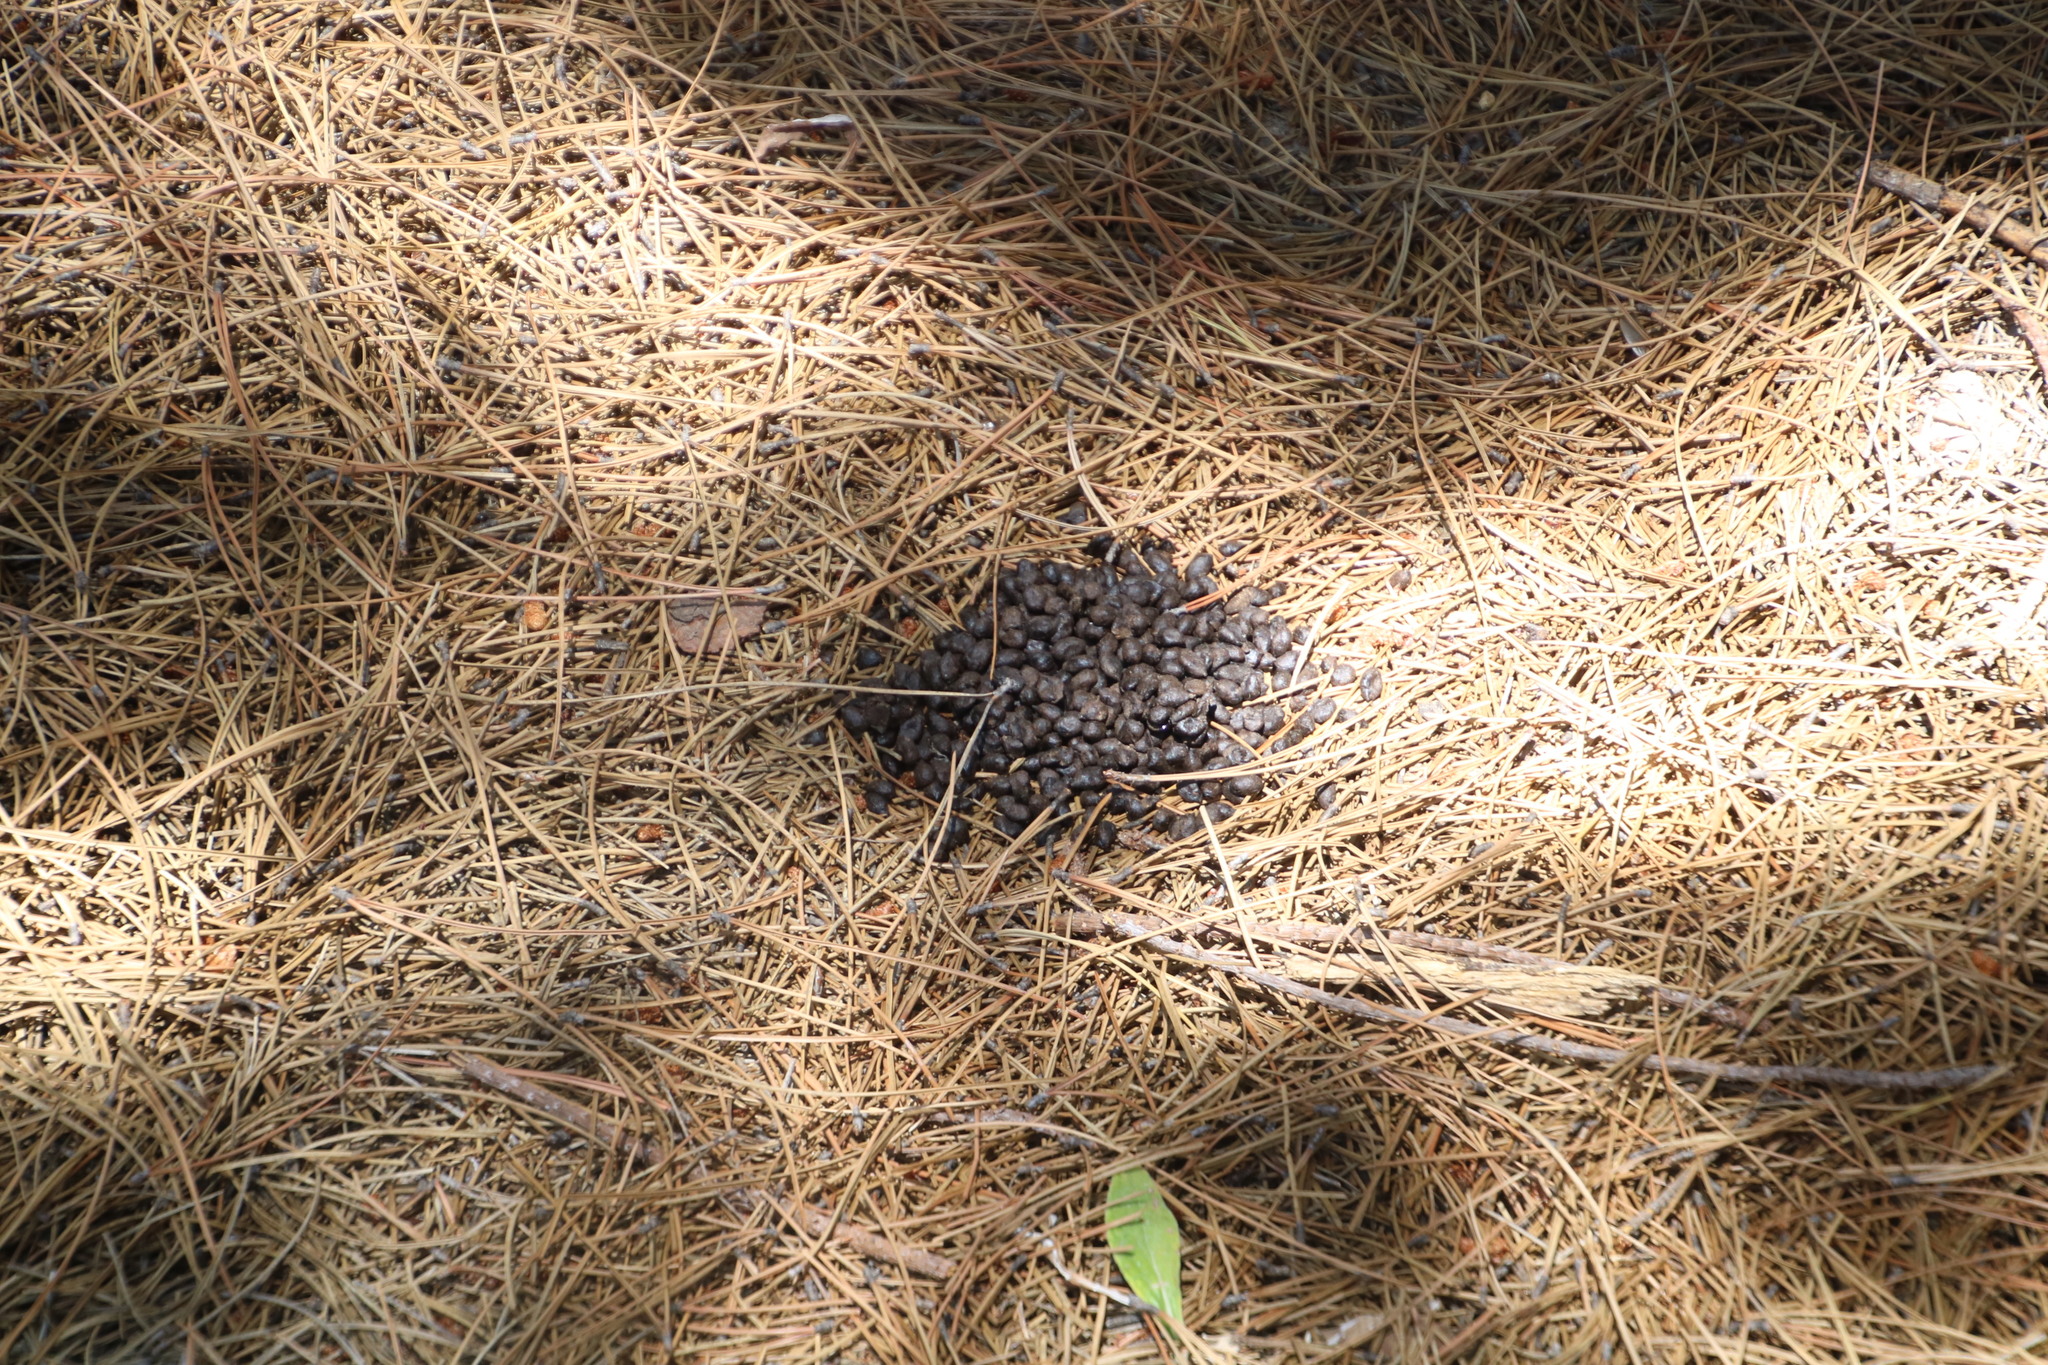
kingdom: Animalia
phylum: Chordata
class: Mammalia
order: Artiodactyla
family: Bovidae
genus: Sylvicapra
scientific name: Sylvicapra grimmia
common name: Bush duiker
